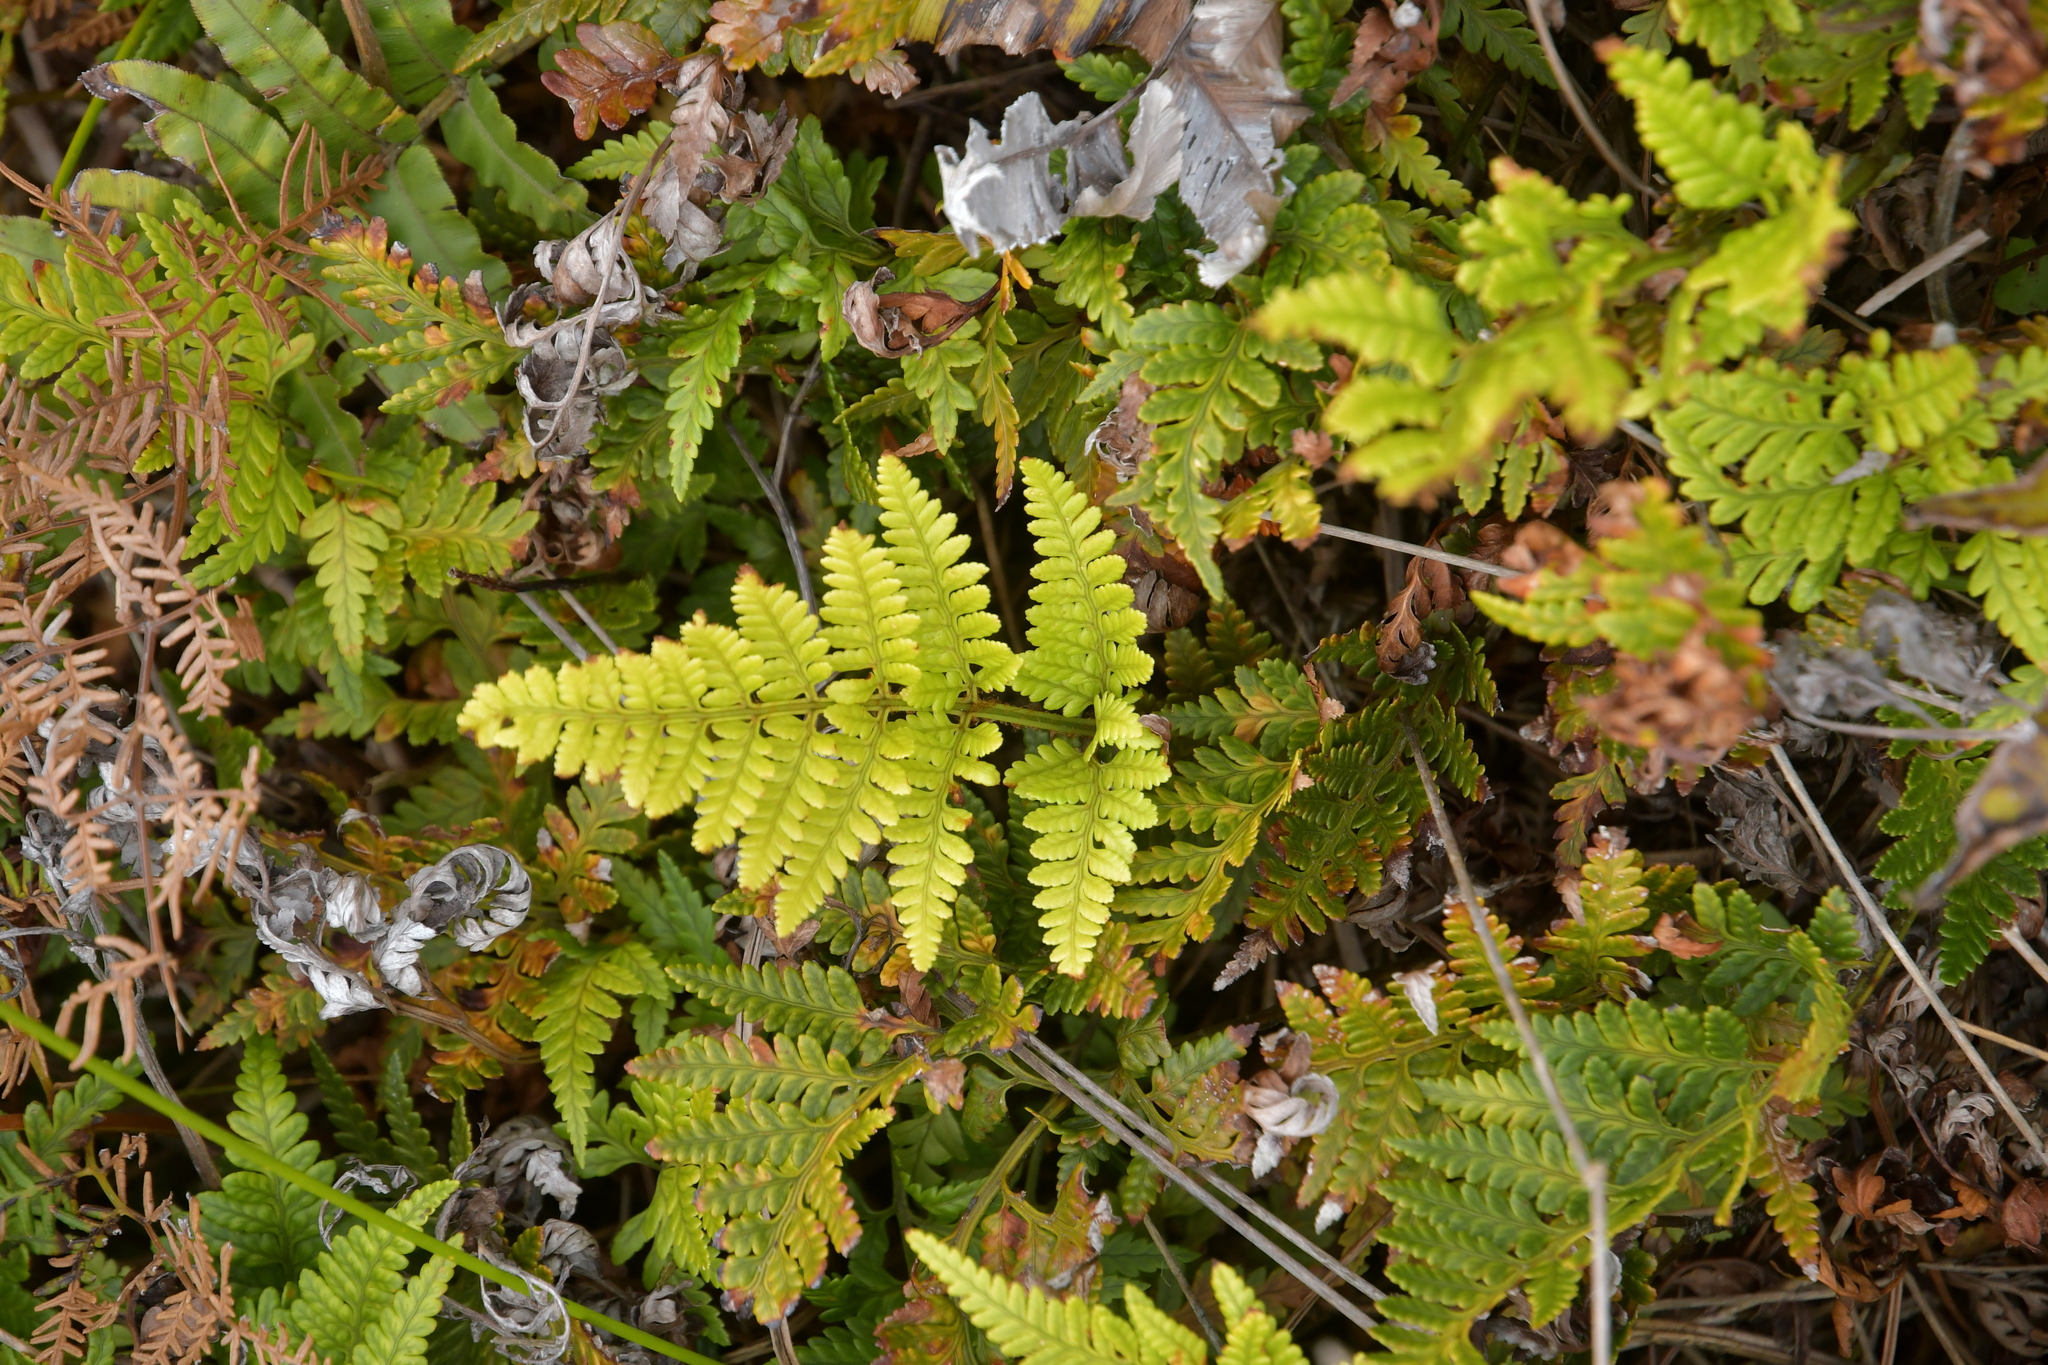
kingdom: Plantae
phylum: Tracheophyta
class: Polypodiopsida
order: Polypodiales
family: Dryopteridaceae
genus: Polystichum
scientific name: Polystichum vestitum
